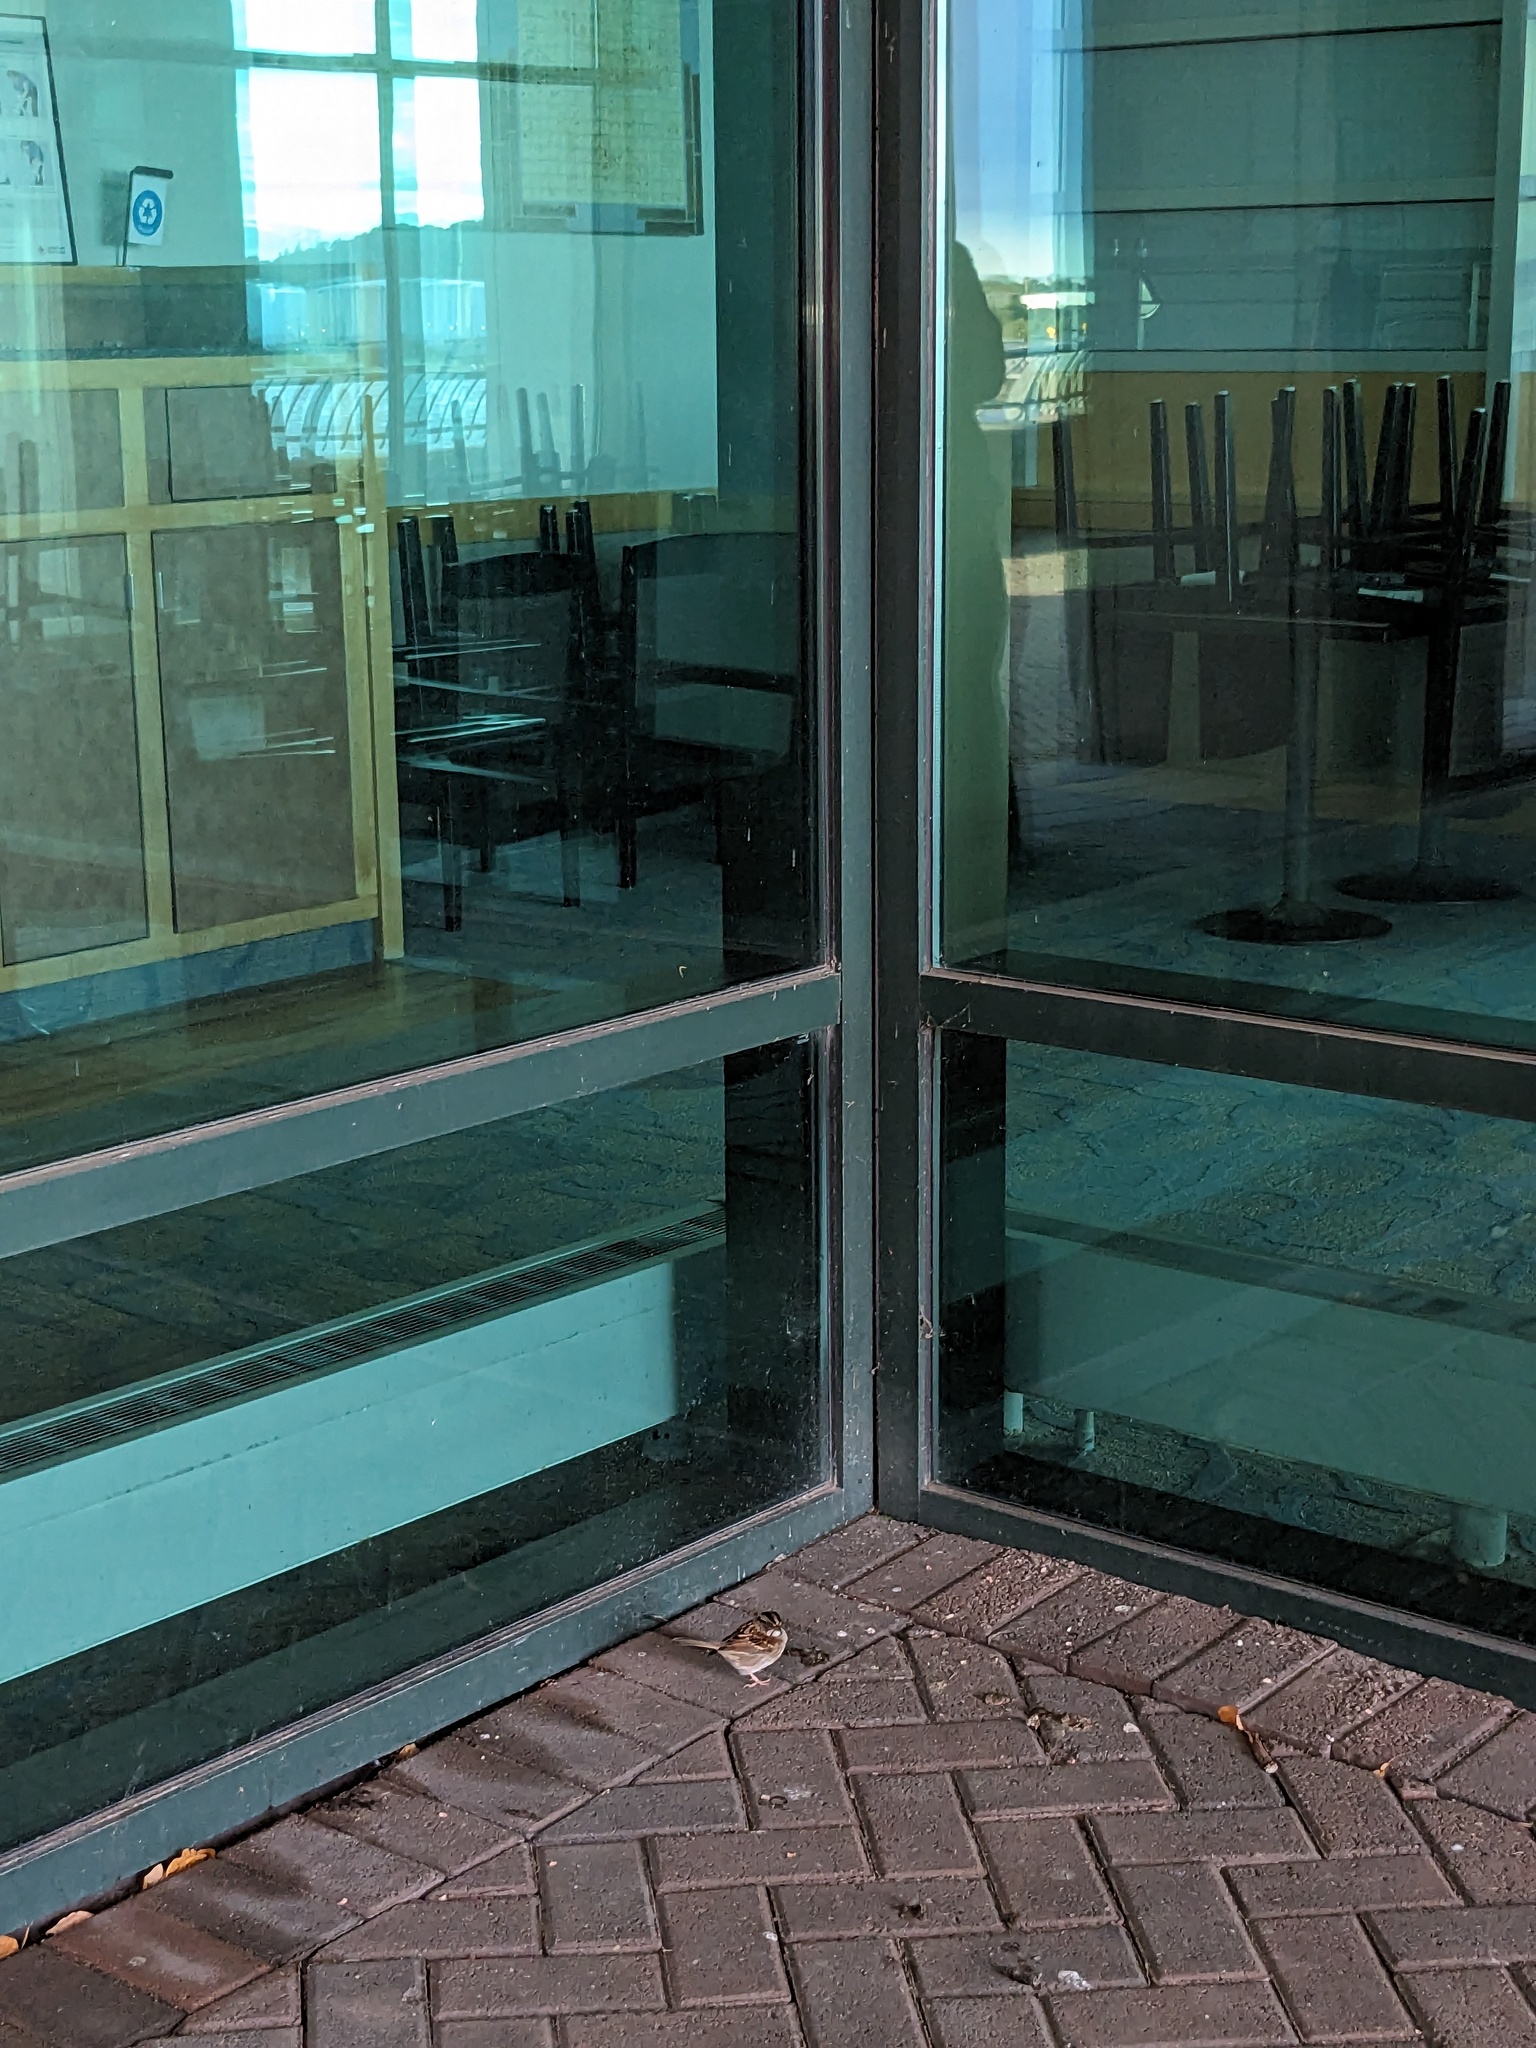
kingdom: Animalia
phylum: Chordata
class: Aves
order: Passeriformes
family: Passerellidae
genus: Zonotrichia
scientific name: Zonotrichia albicollis
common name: White-throated sparrow
